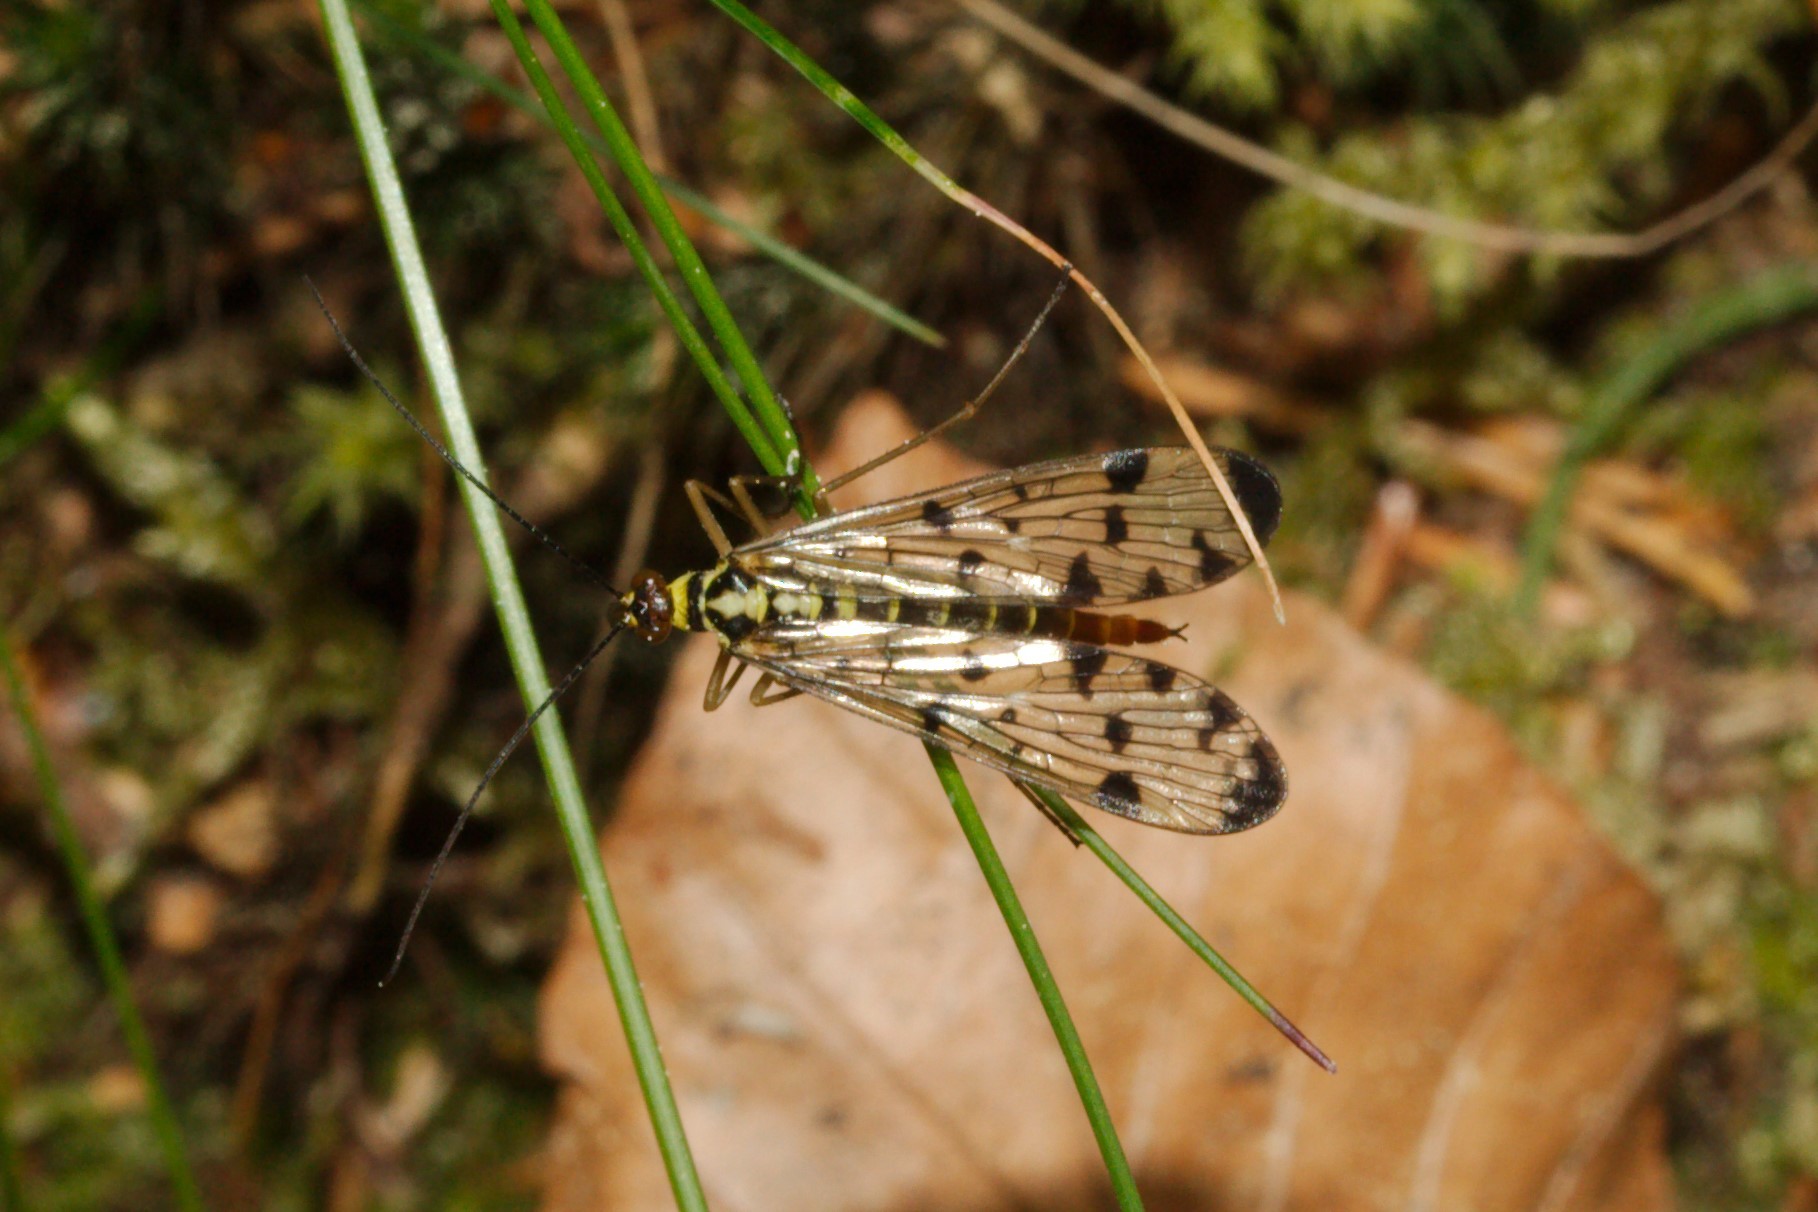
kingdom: Animalia
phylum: Arthropoda
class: Insecta
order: Mecoptera
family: Panorpidae
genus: Panorpa
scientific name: Panorpa germanica
